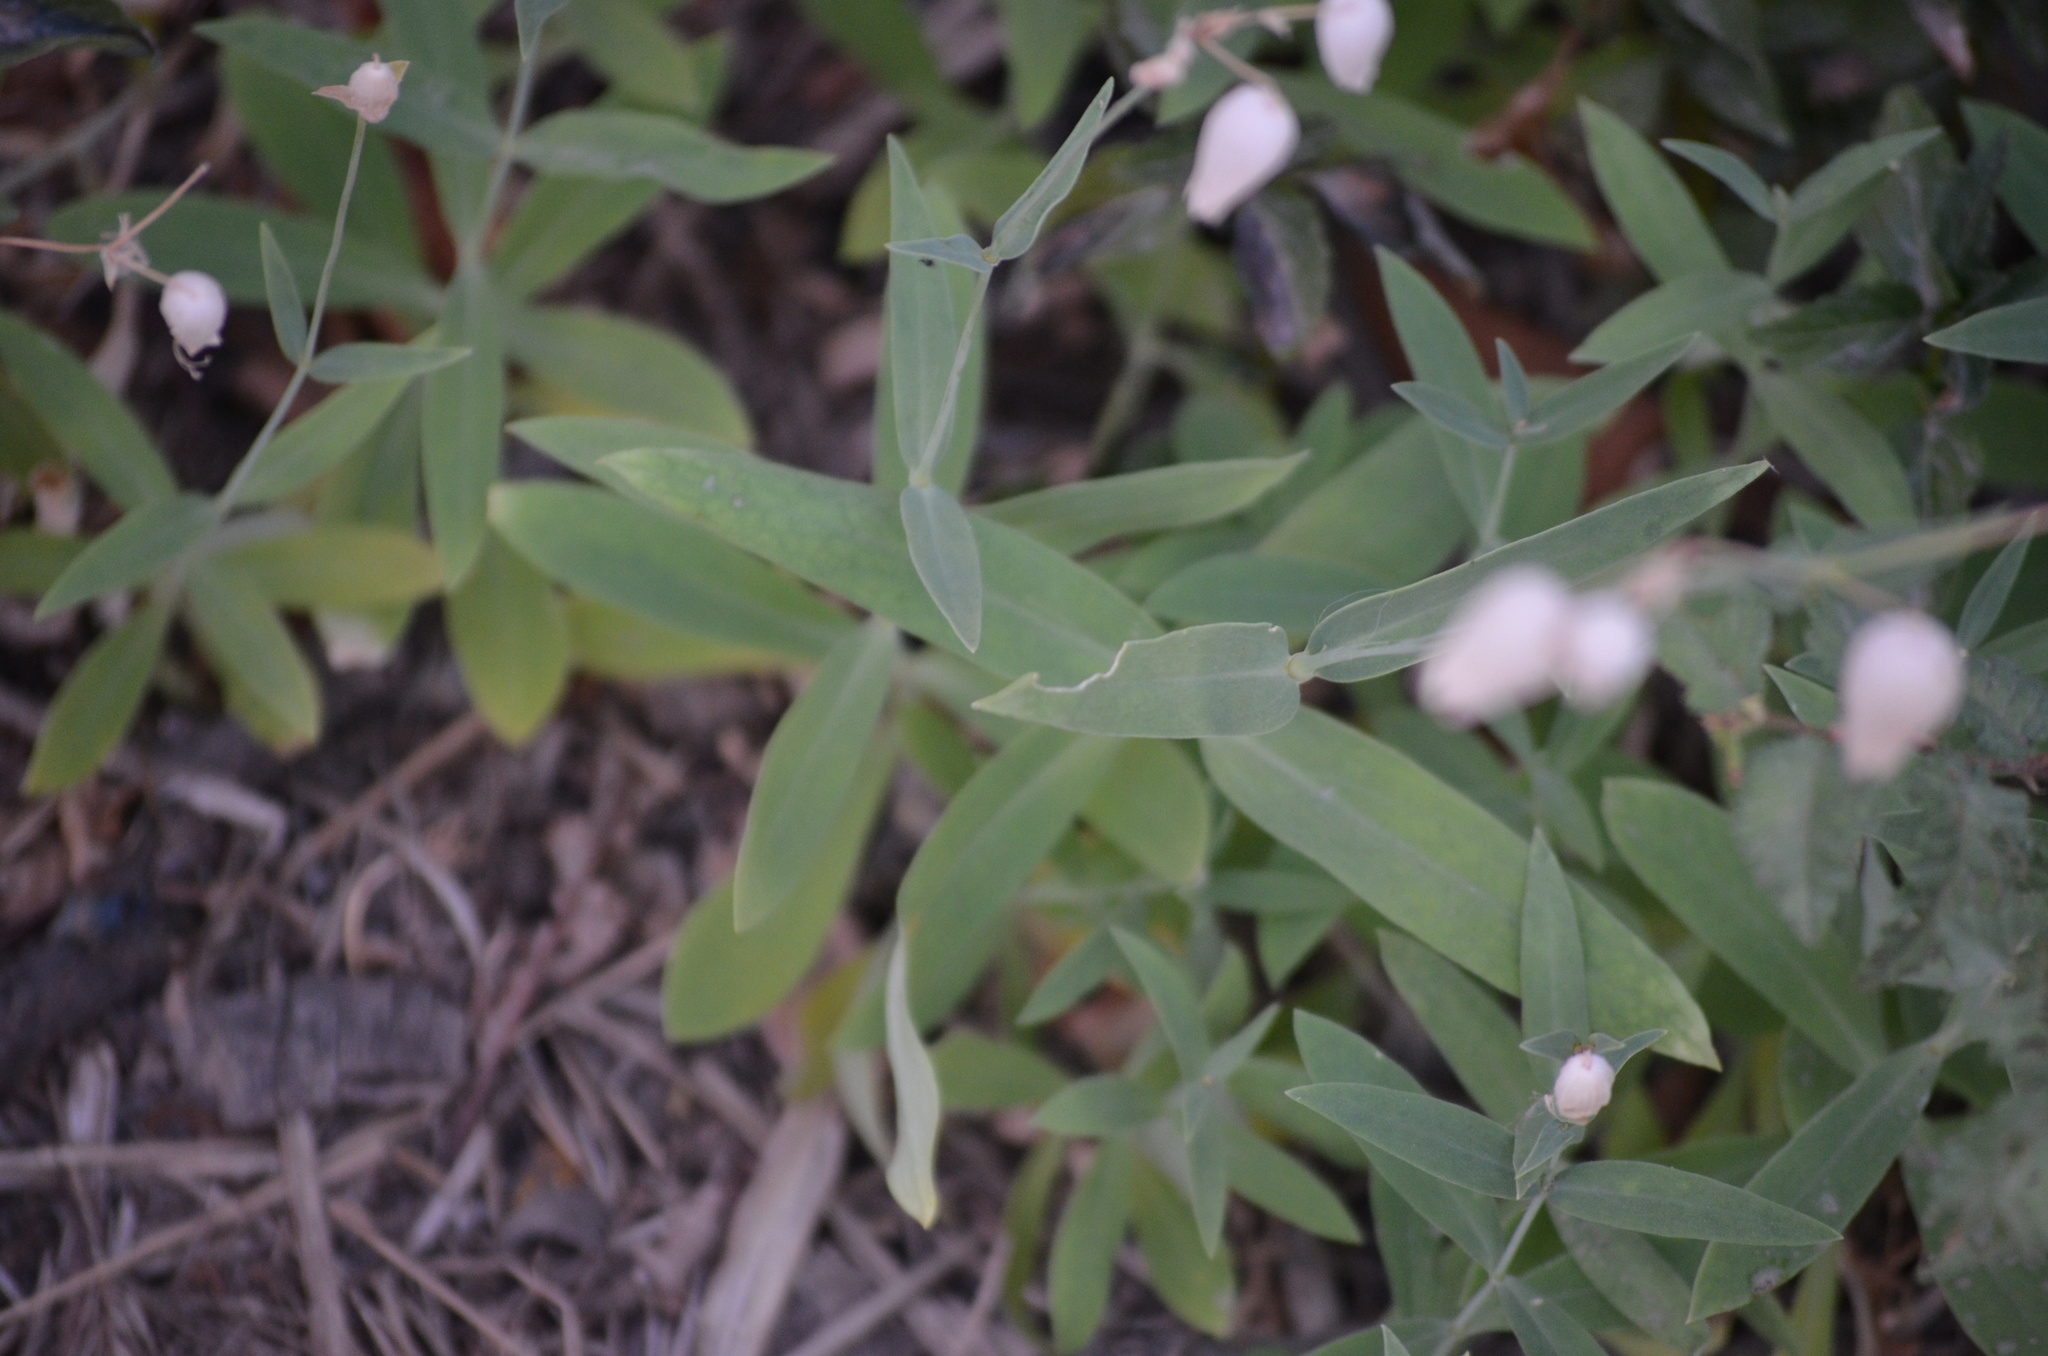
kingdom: Plantae
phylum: Tracheophyta
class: Magnoliopsida
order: Caryophyllales
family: Caryophyllaceae
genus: Silene
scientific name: Silene vulgaris
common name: Bladder campion
